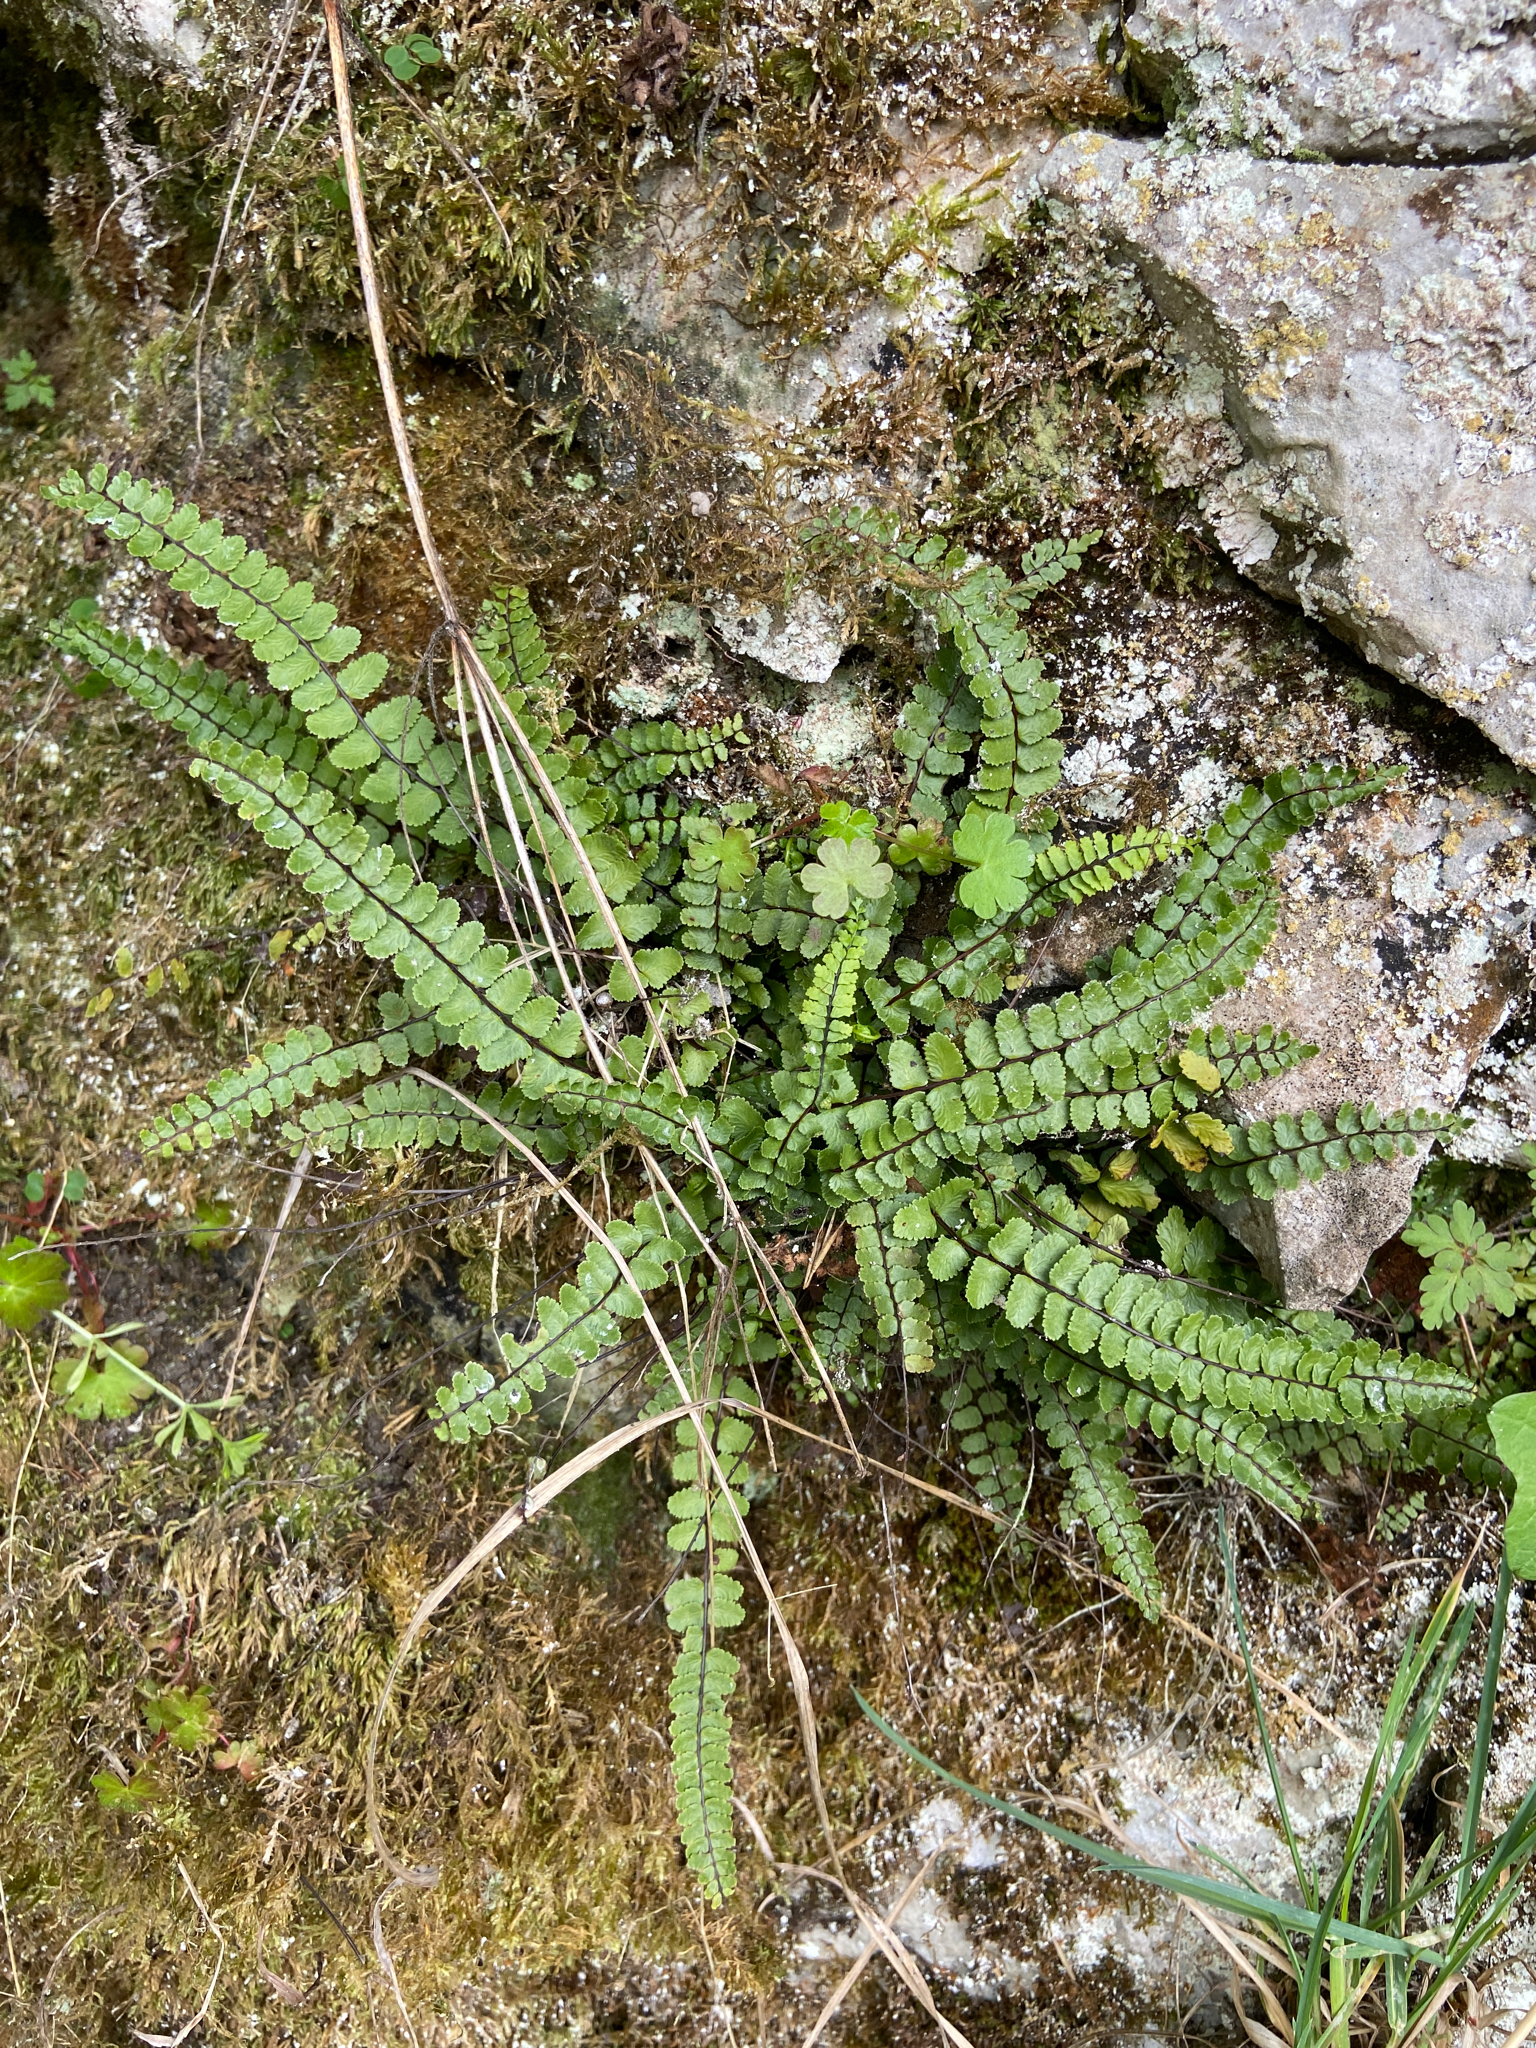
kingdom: Plantae
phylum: Tracheophyta
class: Polypodiopsida
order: Polypodiales
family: Aspleniaceae
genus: Asplenium
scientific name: Asplenium trichomanes
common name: Maidenhair spleenwort
